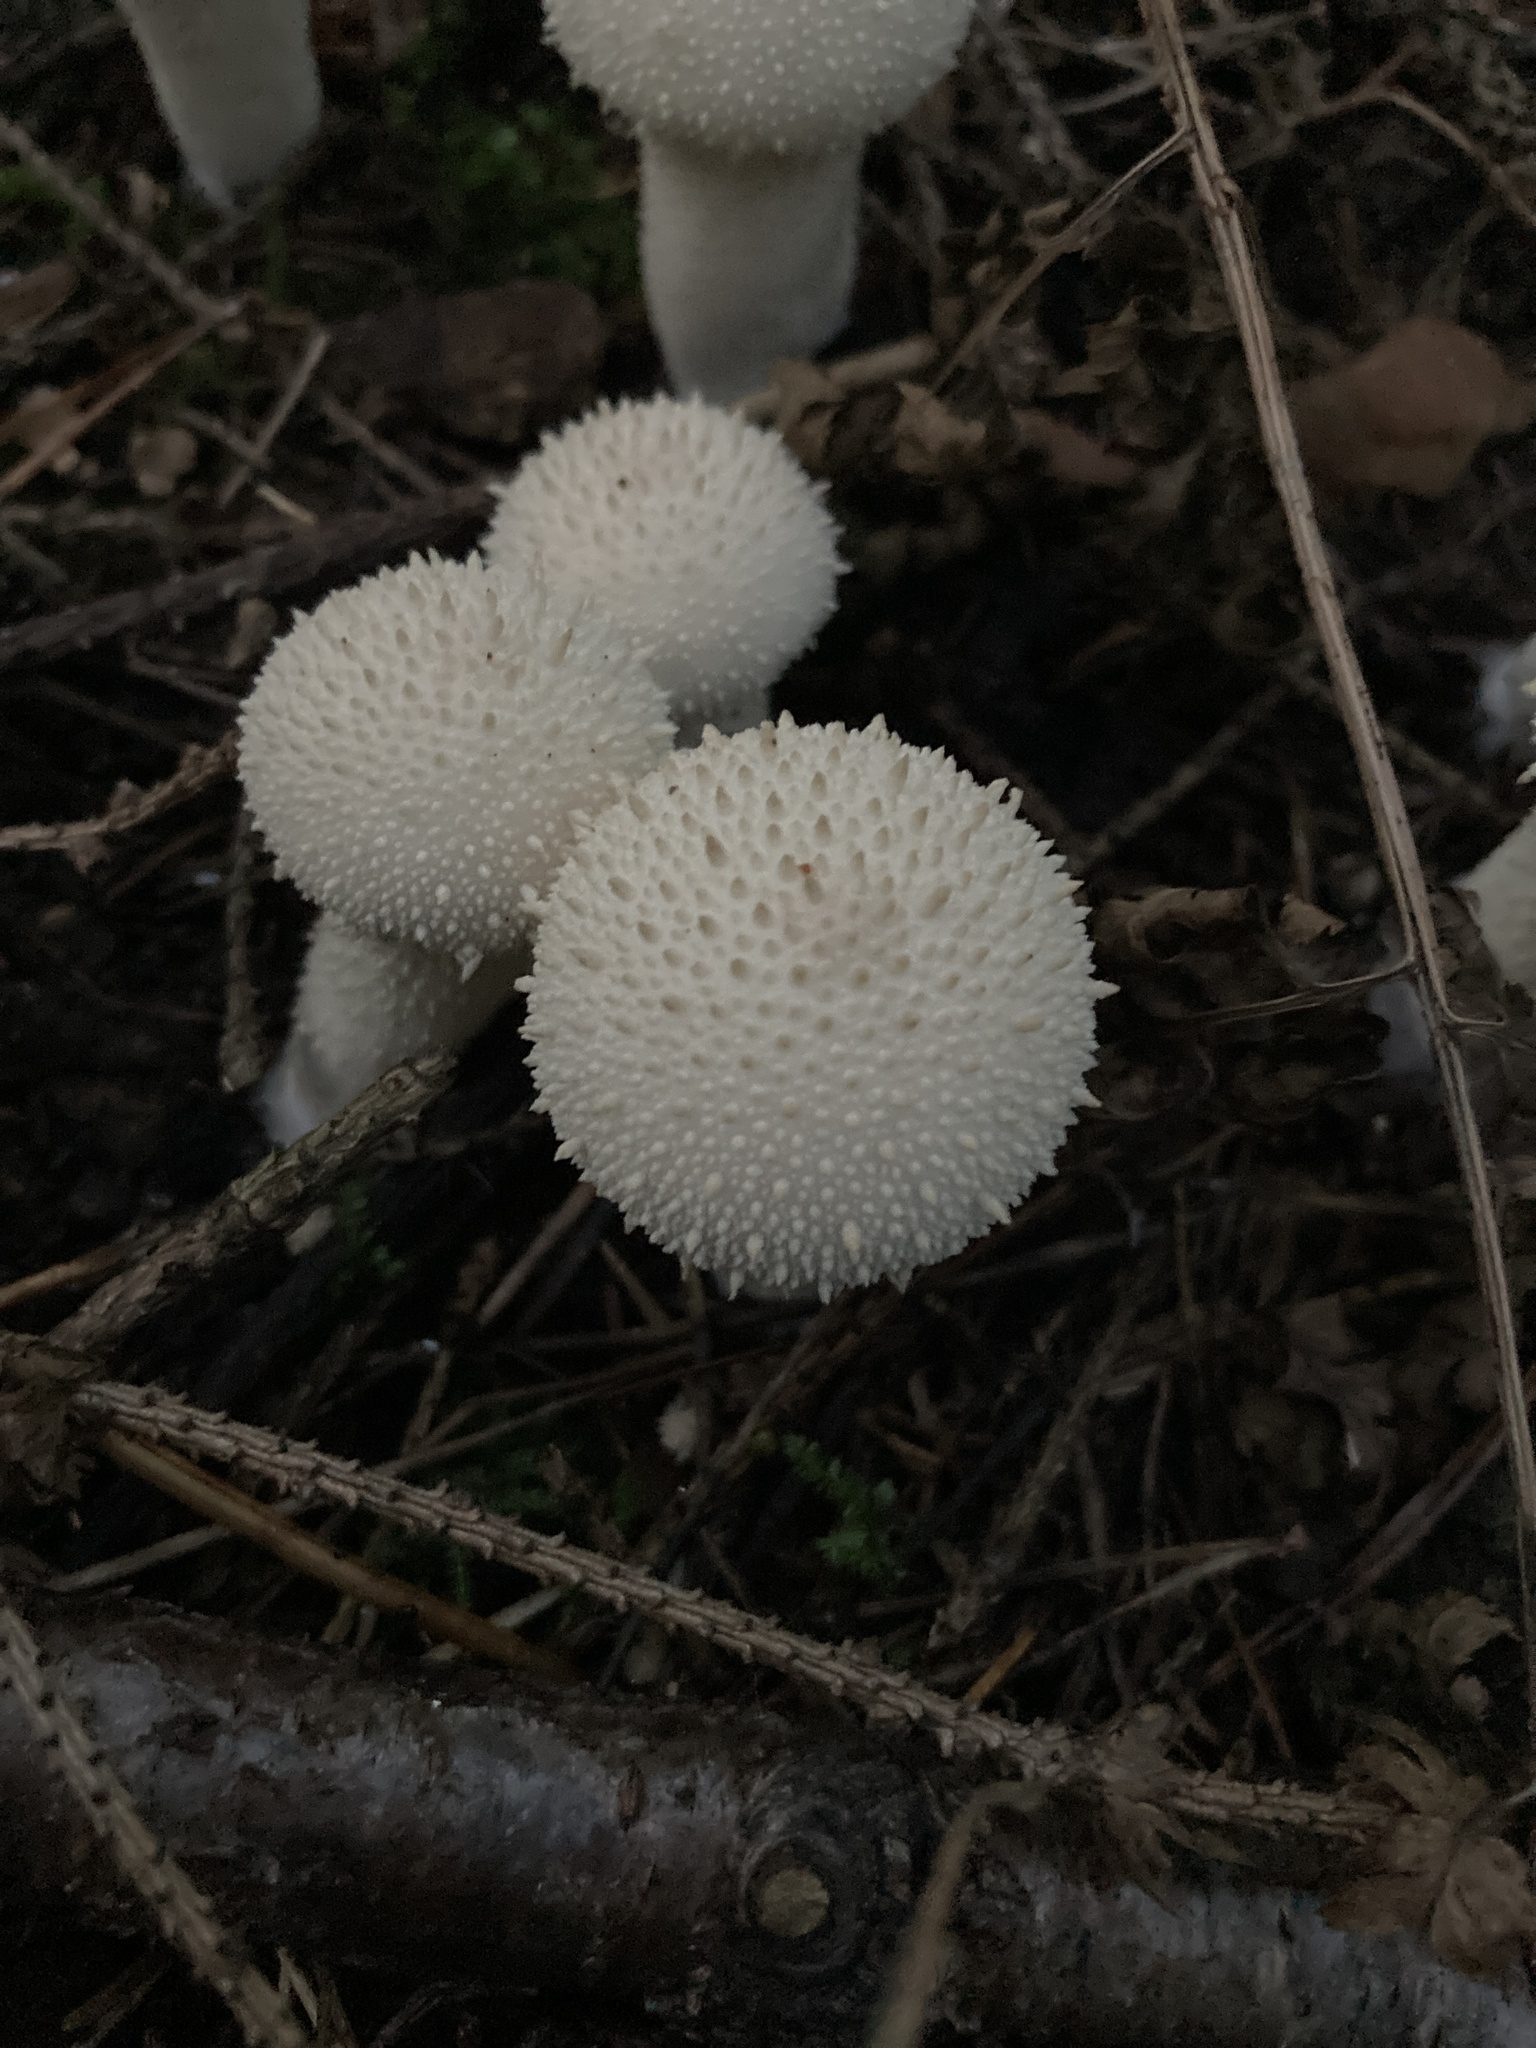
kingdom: Fungi
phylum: Basidiomycota
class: Agaricomycetes
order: Agaricales
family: Lycoperdaceae
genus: Lycoperdon
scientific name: Lycoperdon perlatum
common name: Common puffball
